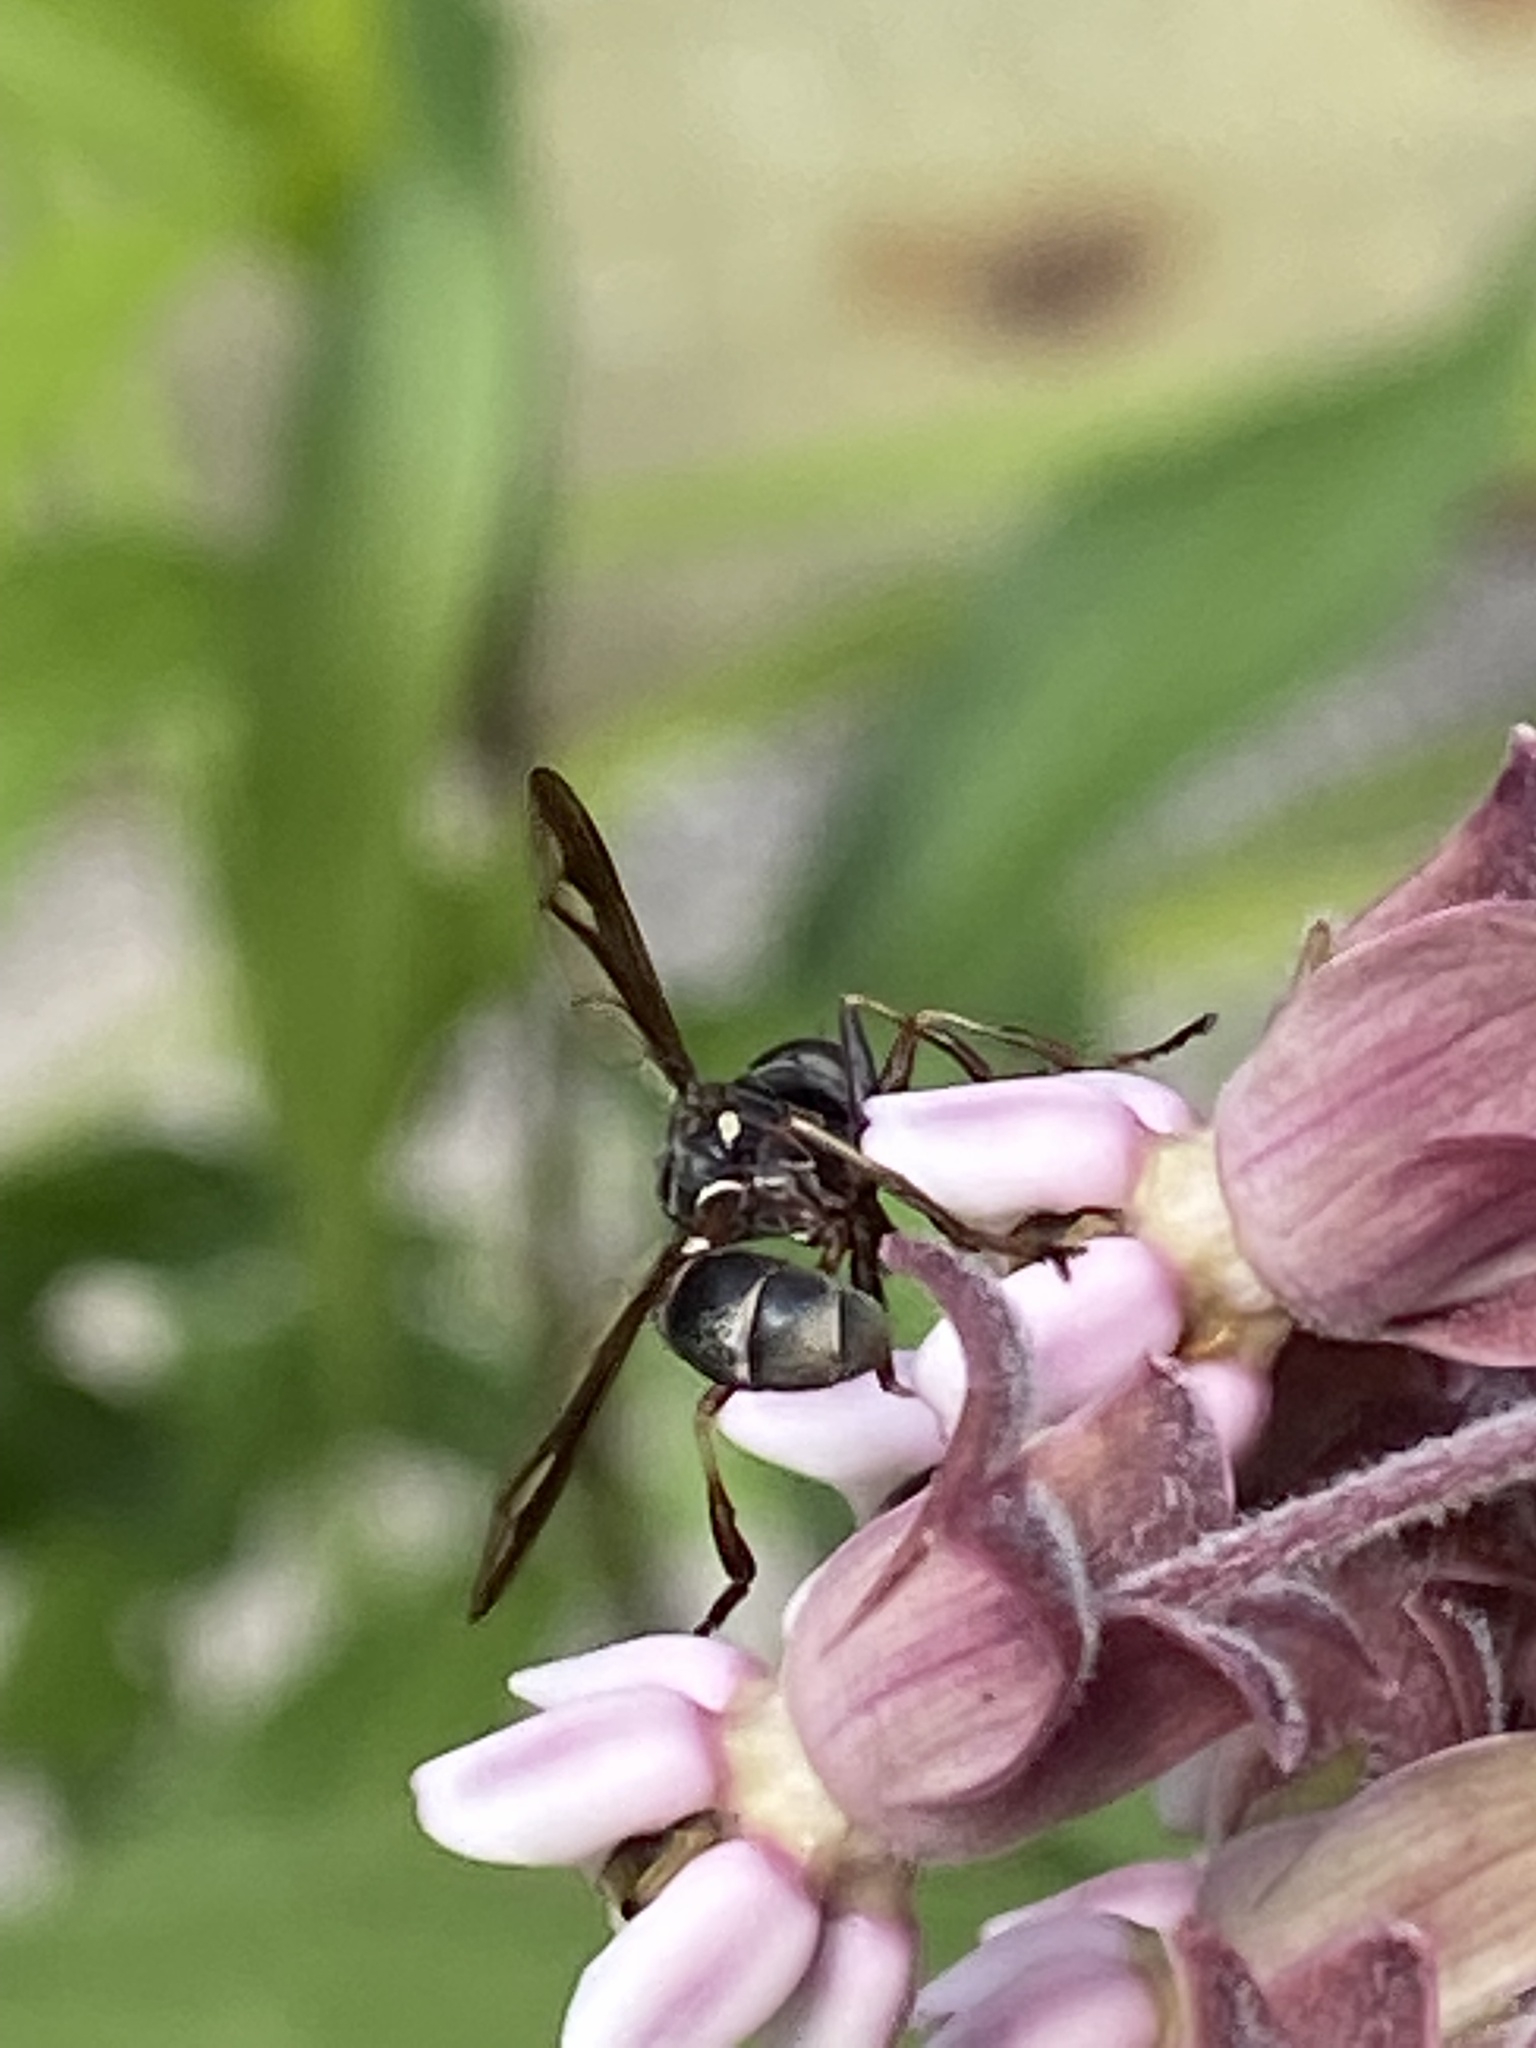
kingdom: Animalia
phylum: Arthropoda
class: Insecta
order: Diptera
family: Conopidae
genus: Physocephala
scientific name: Physocephala furcillata
